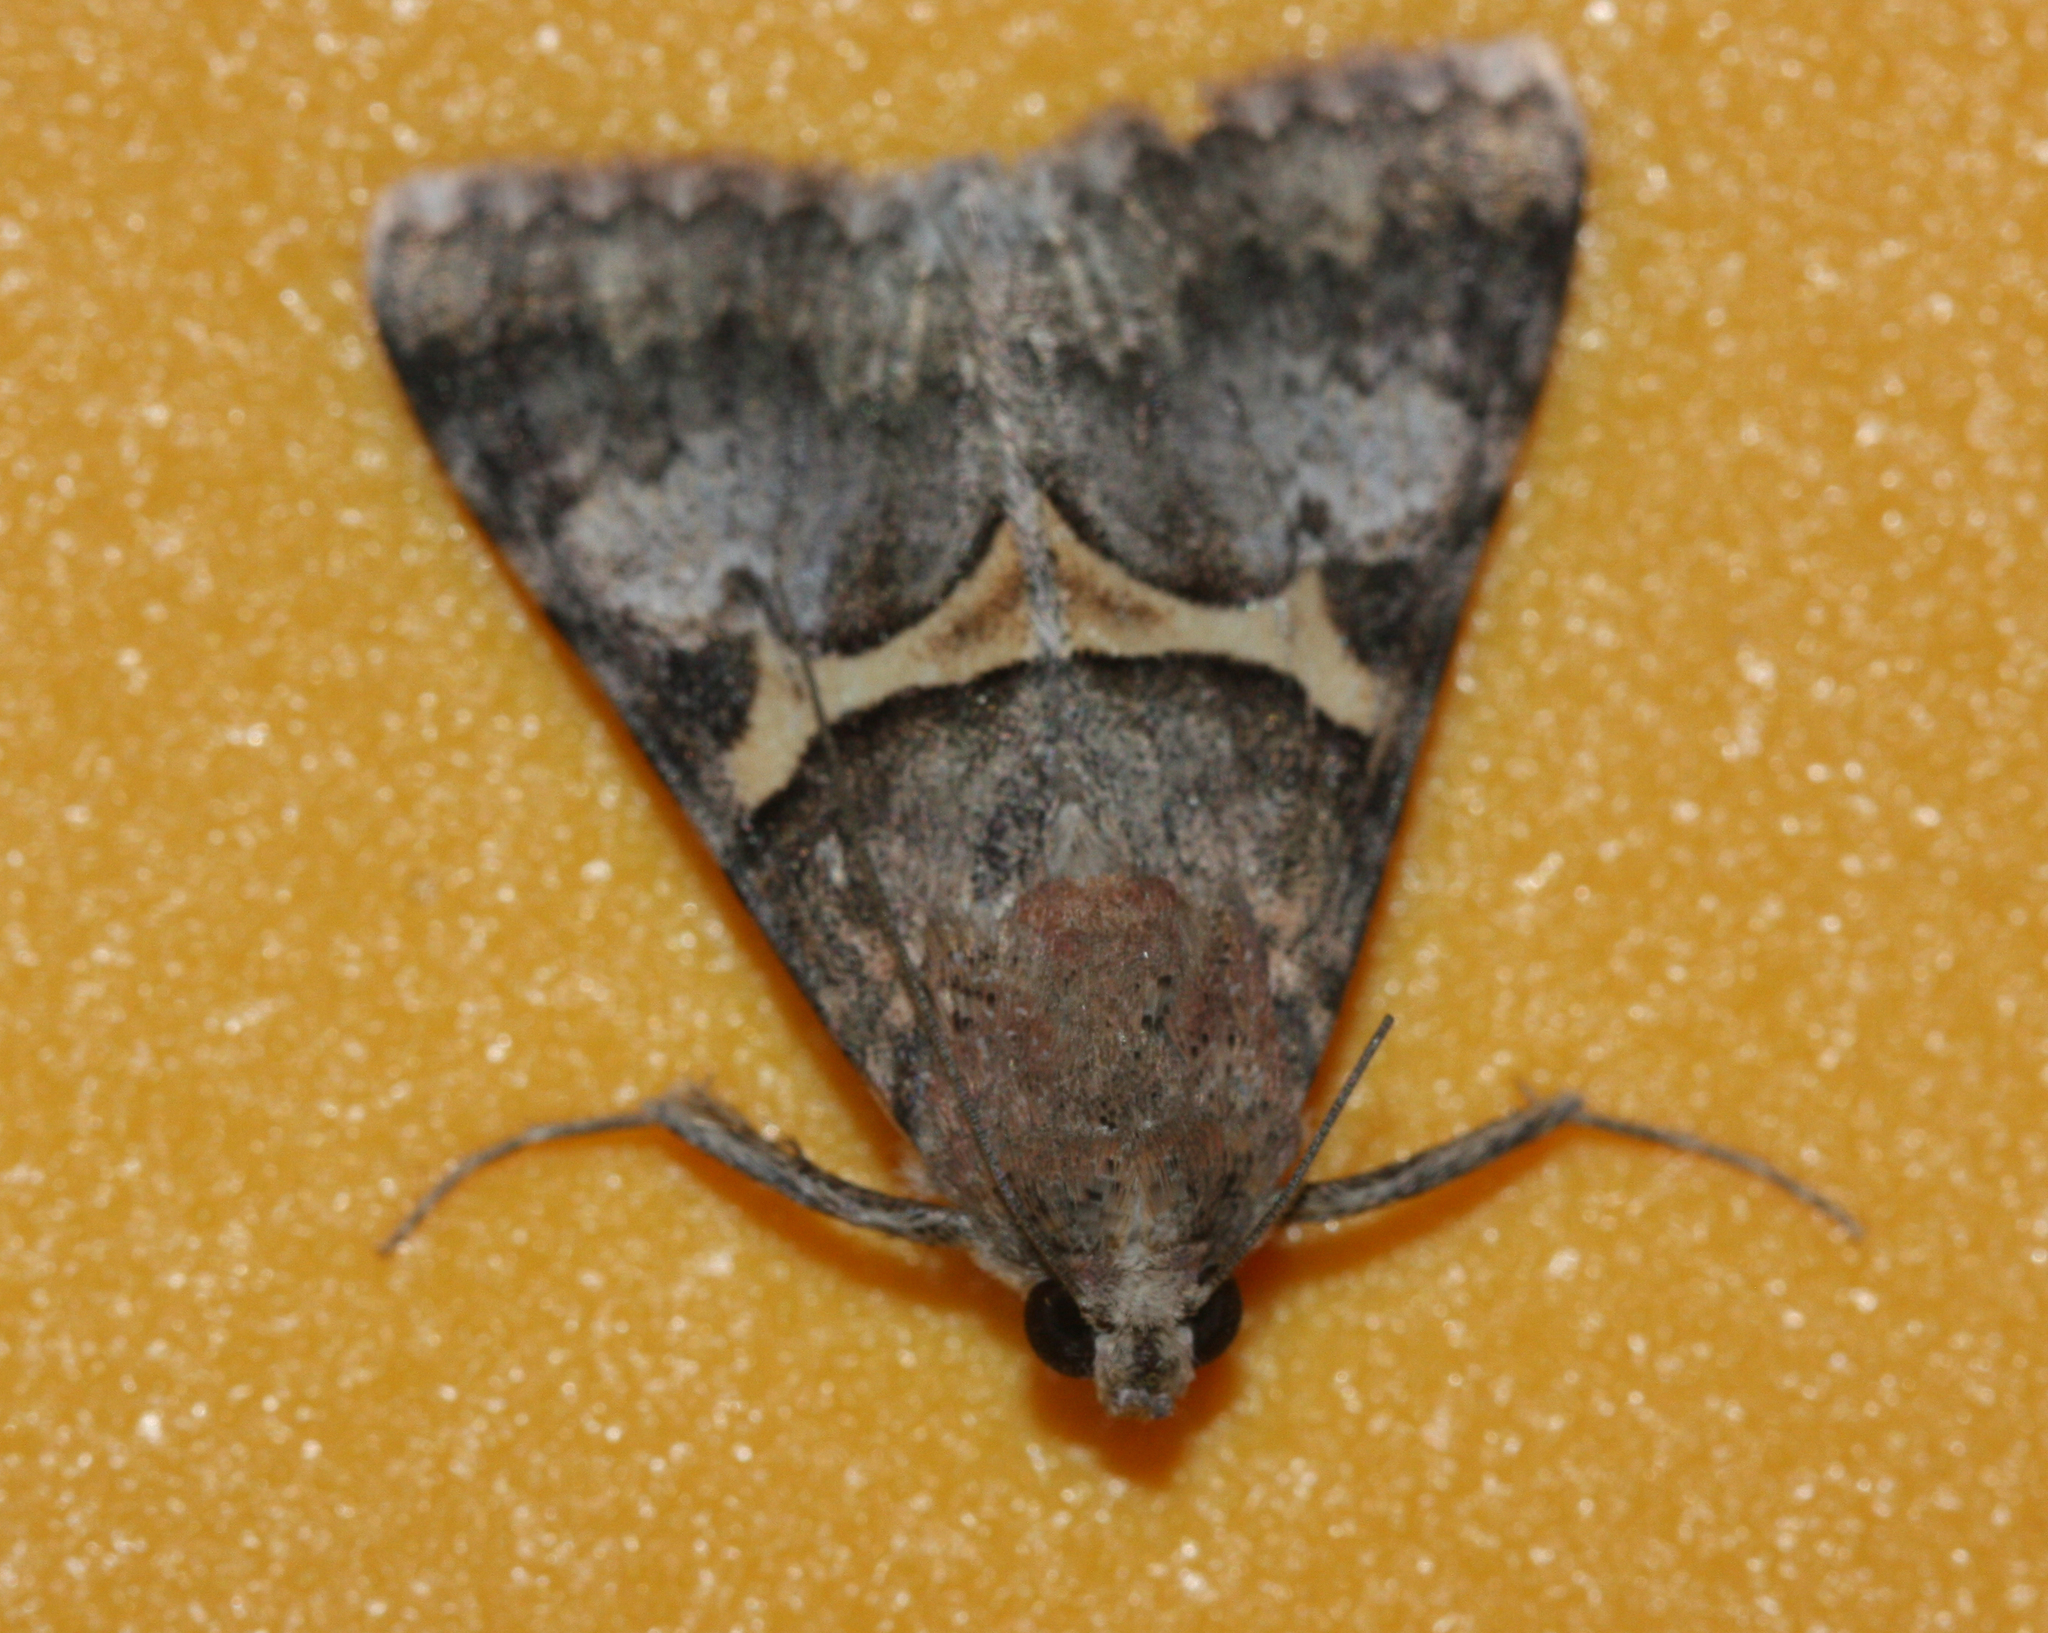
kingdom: Animalia
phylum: Arthropoda
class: Insecta
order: Lepidoptera
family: Erebidae
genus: Melipotis
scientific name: Melipotis jucunda
